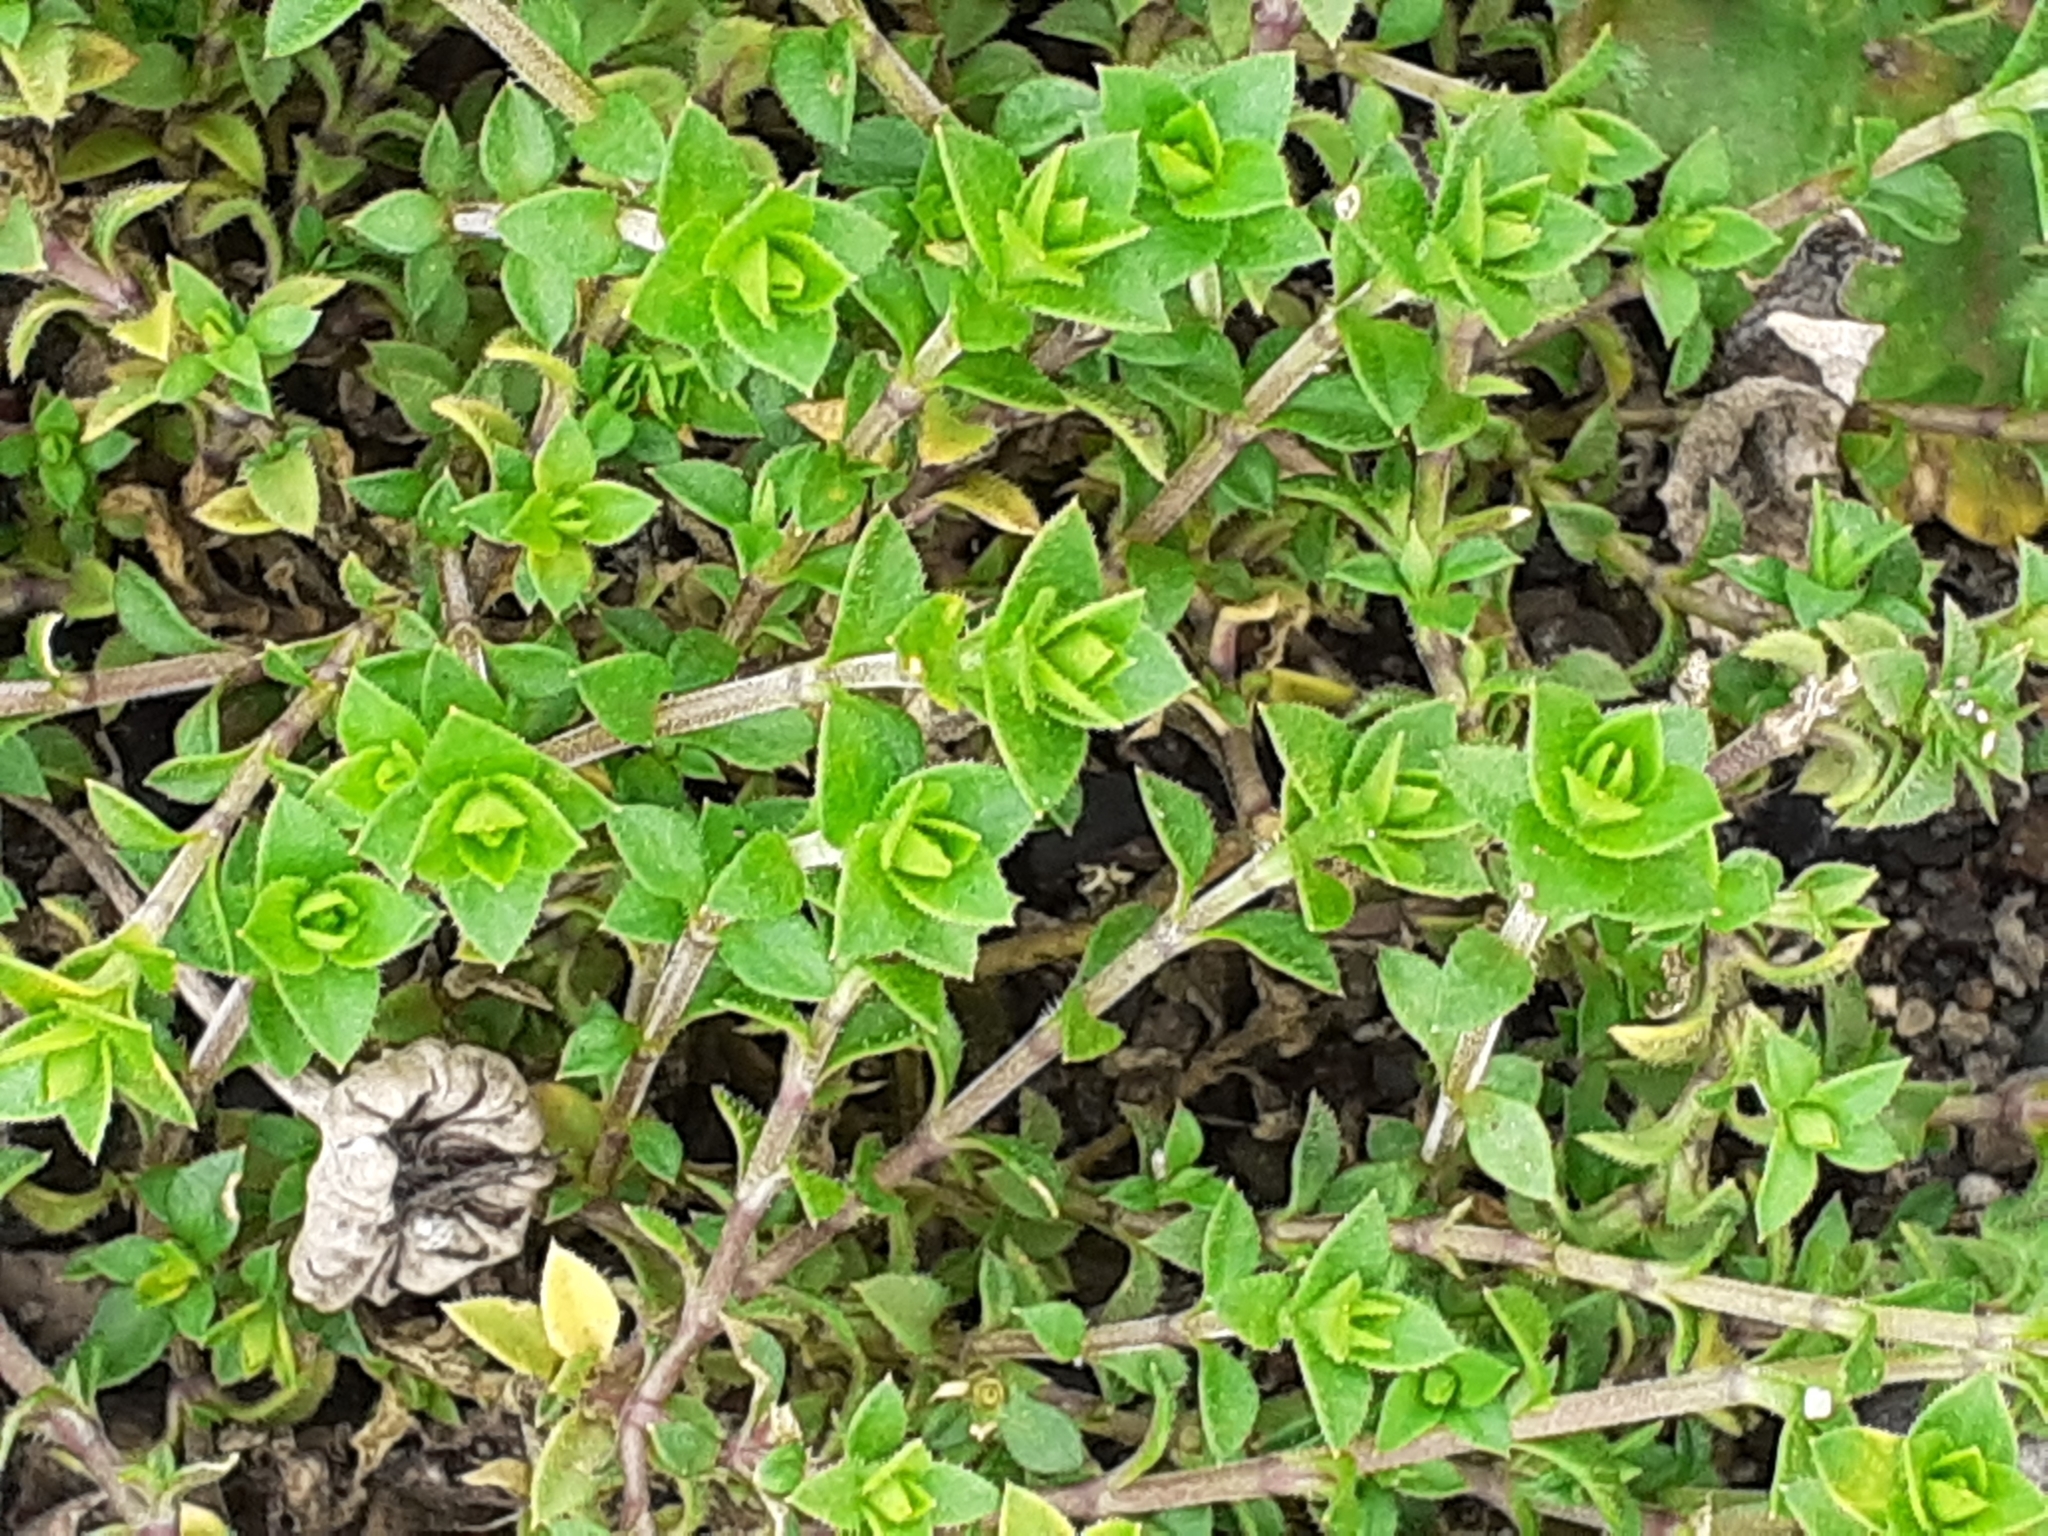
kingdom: Plantae
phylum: Tracheophyta
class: Magnoliopsida
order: Caryophyllales
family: Caryophyllaceae
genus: Arenaria
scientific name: Arenaria serpyllifolia
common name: Thyme-leaved sandwort
